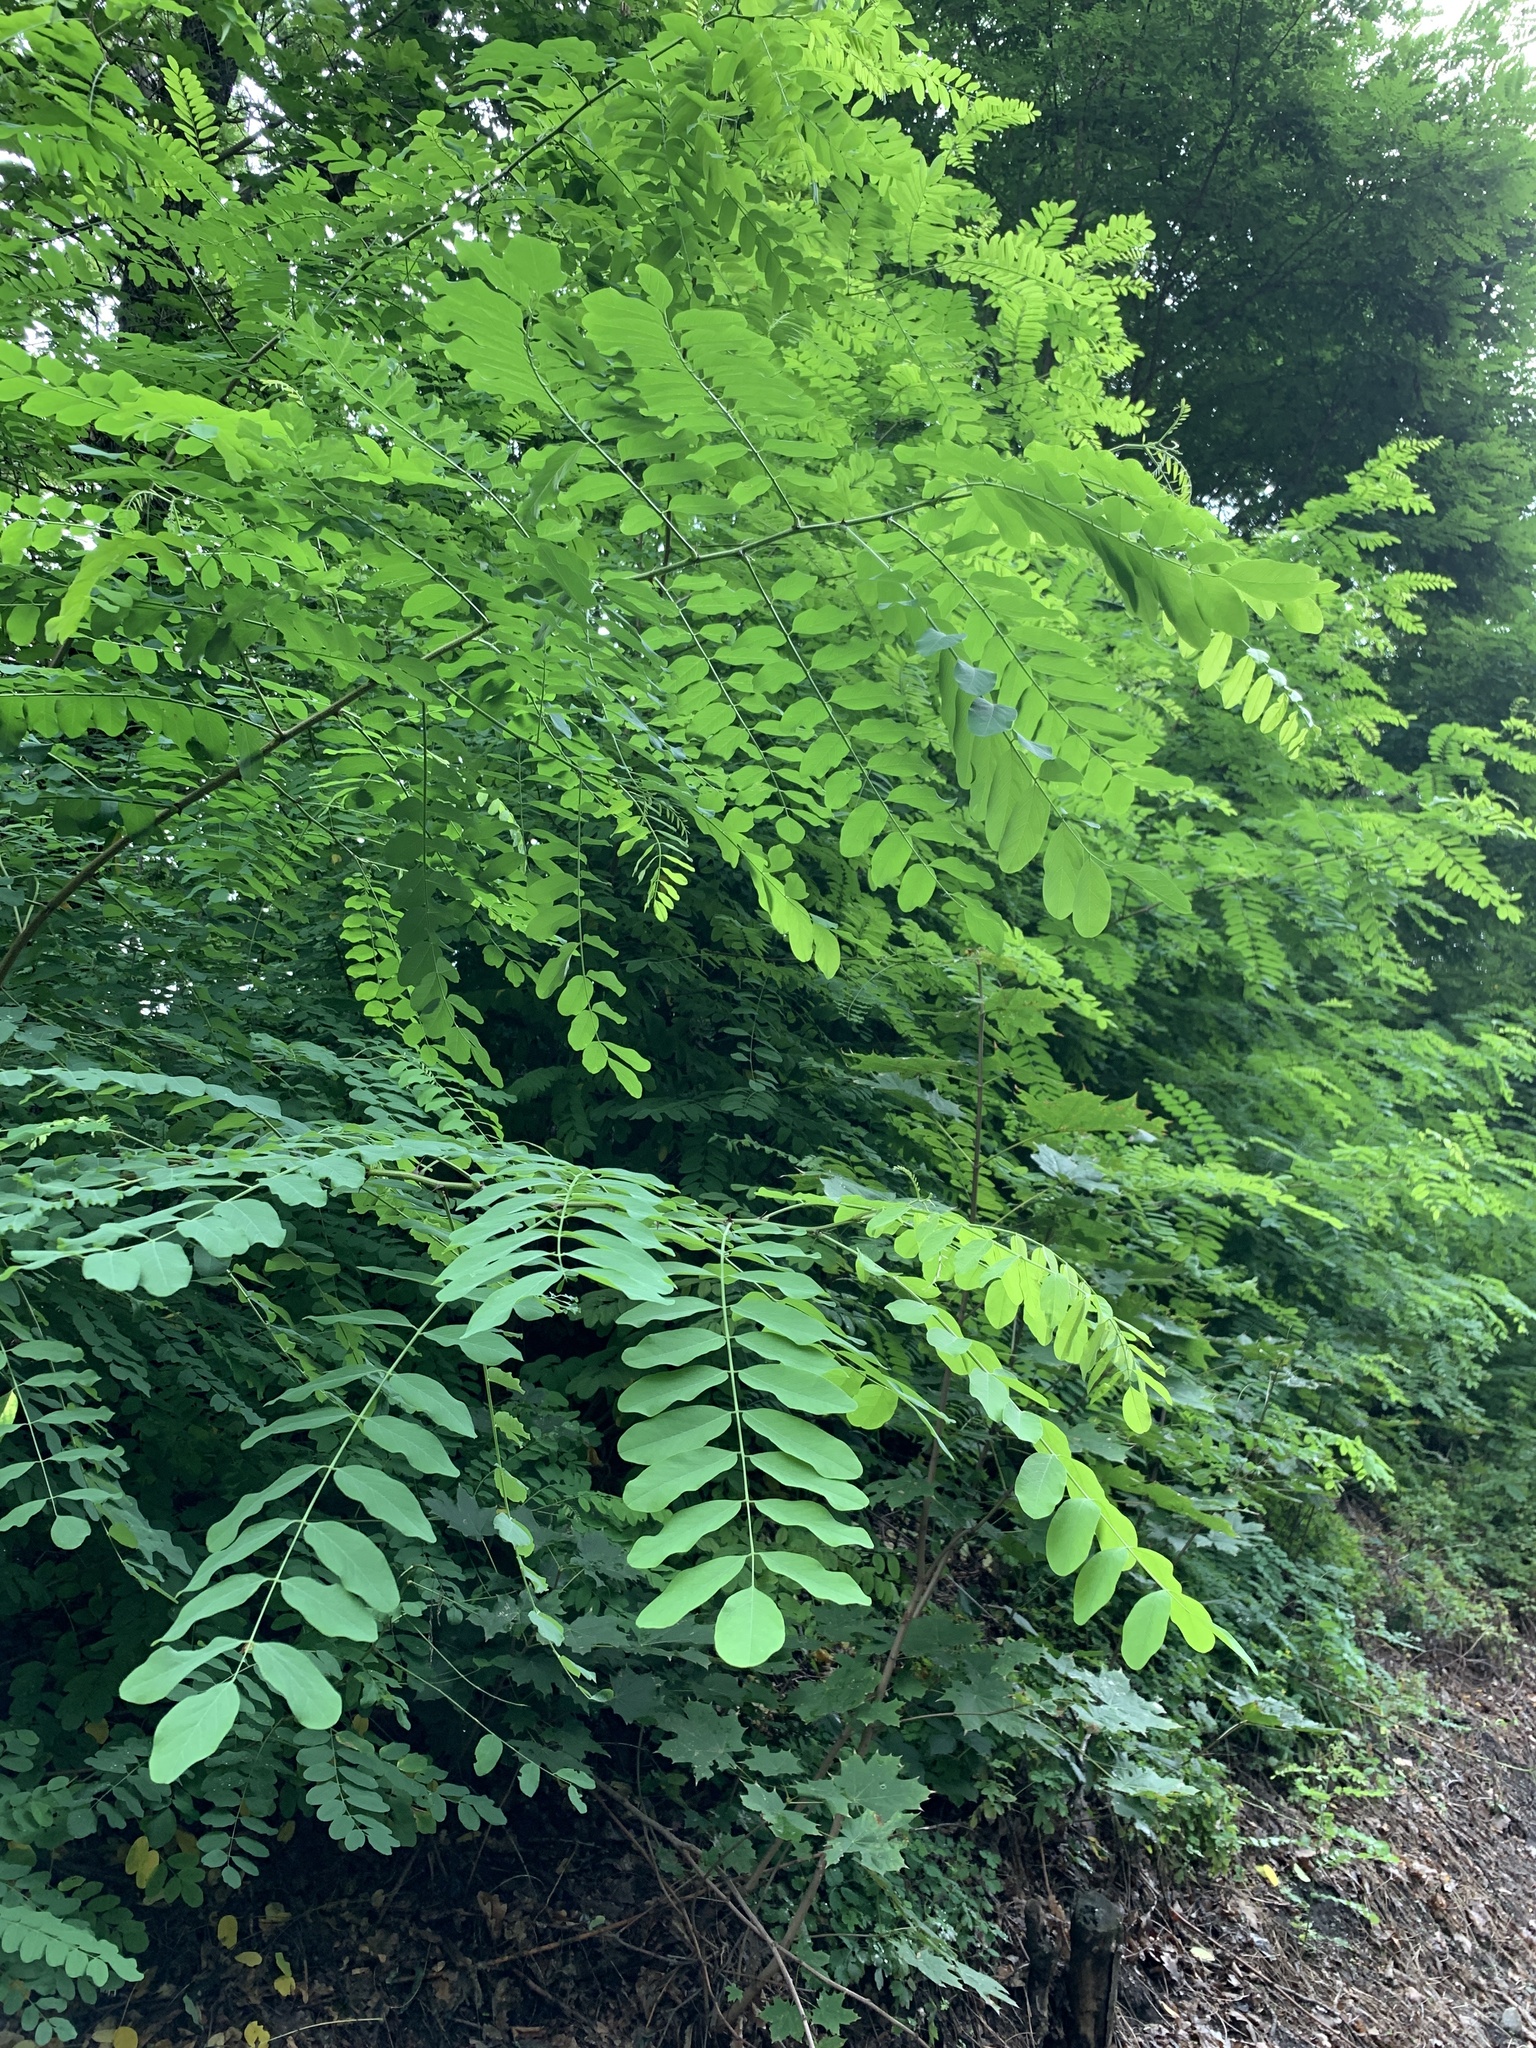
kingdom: Plantae
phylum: Tracheophyta
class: Magnoliopsida
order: Fabales
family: Fabaceae
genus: Robinia
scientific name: Robinia pseudoacacia
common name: Black locust
